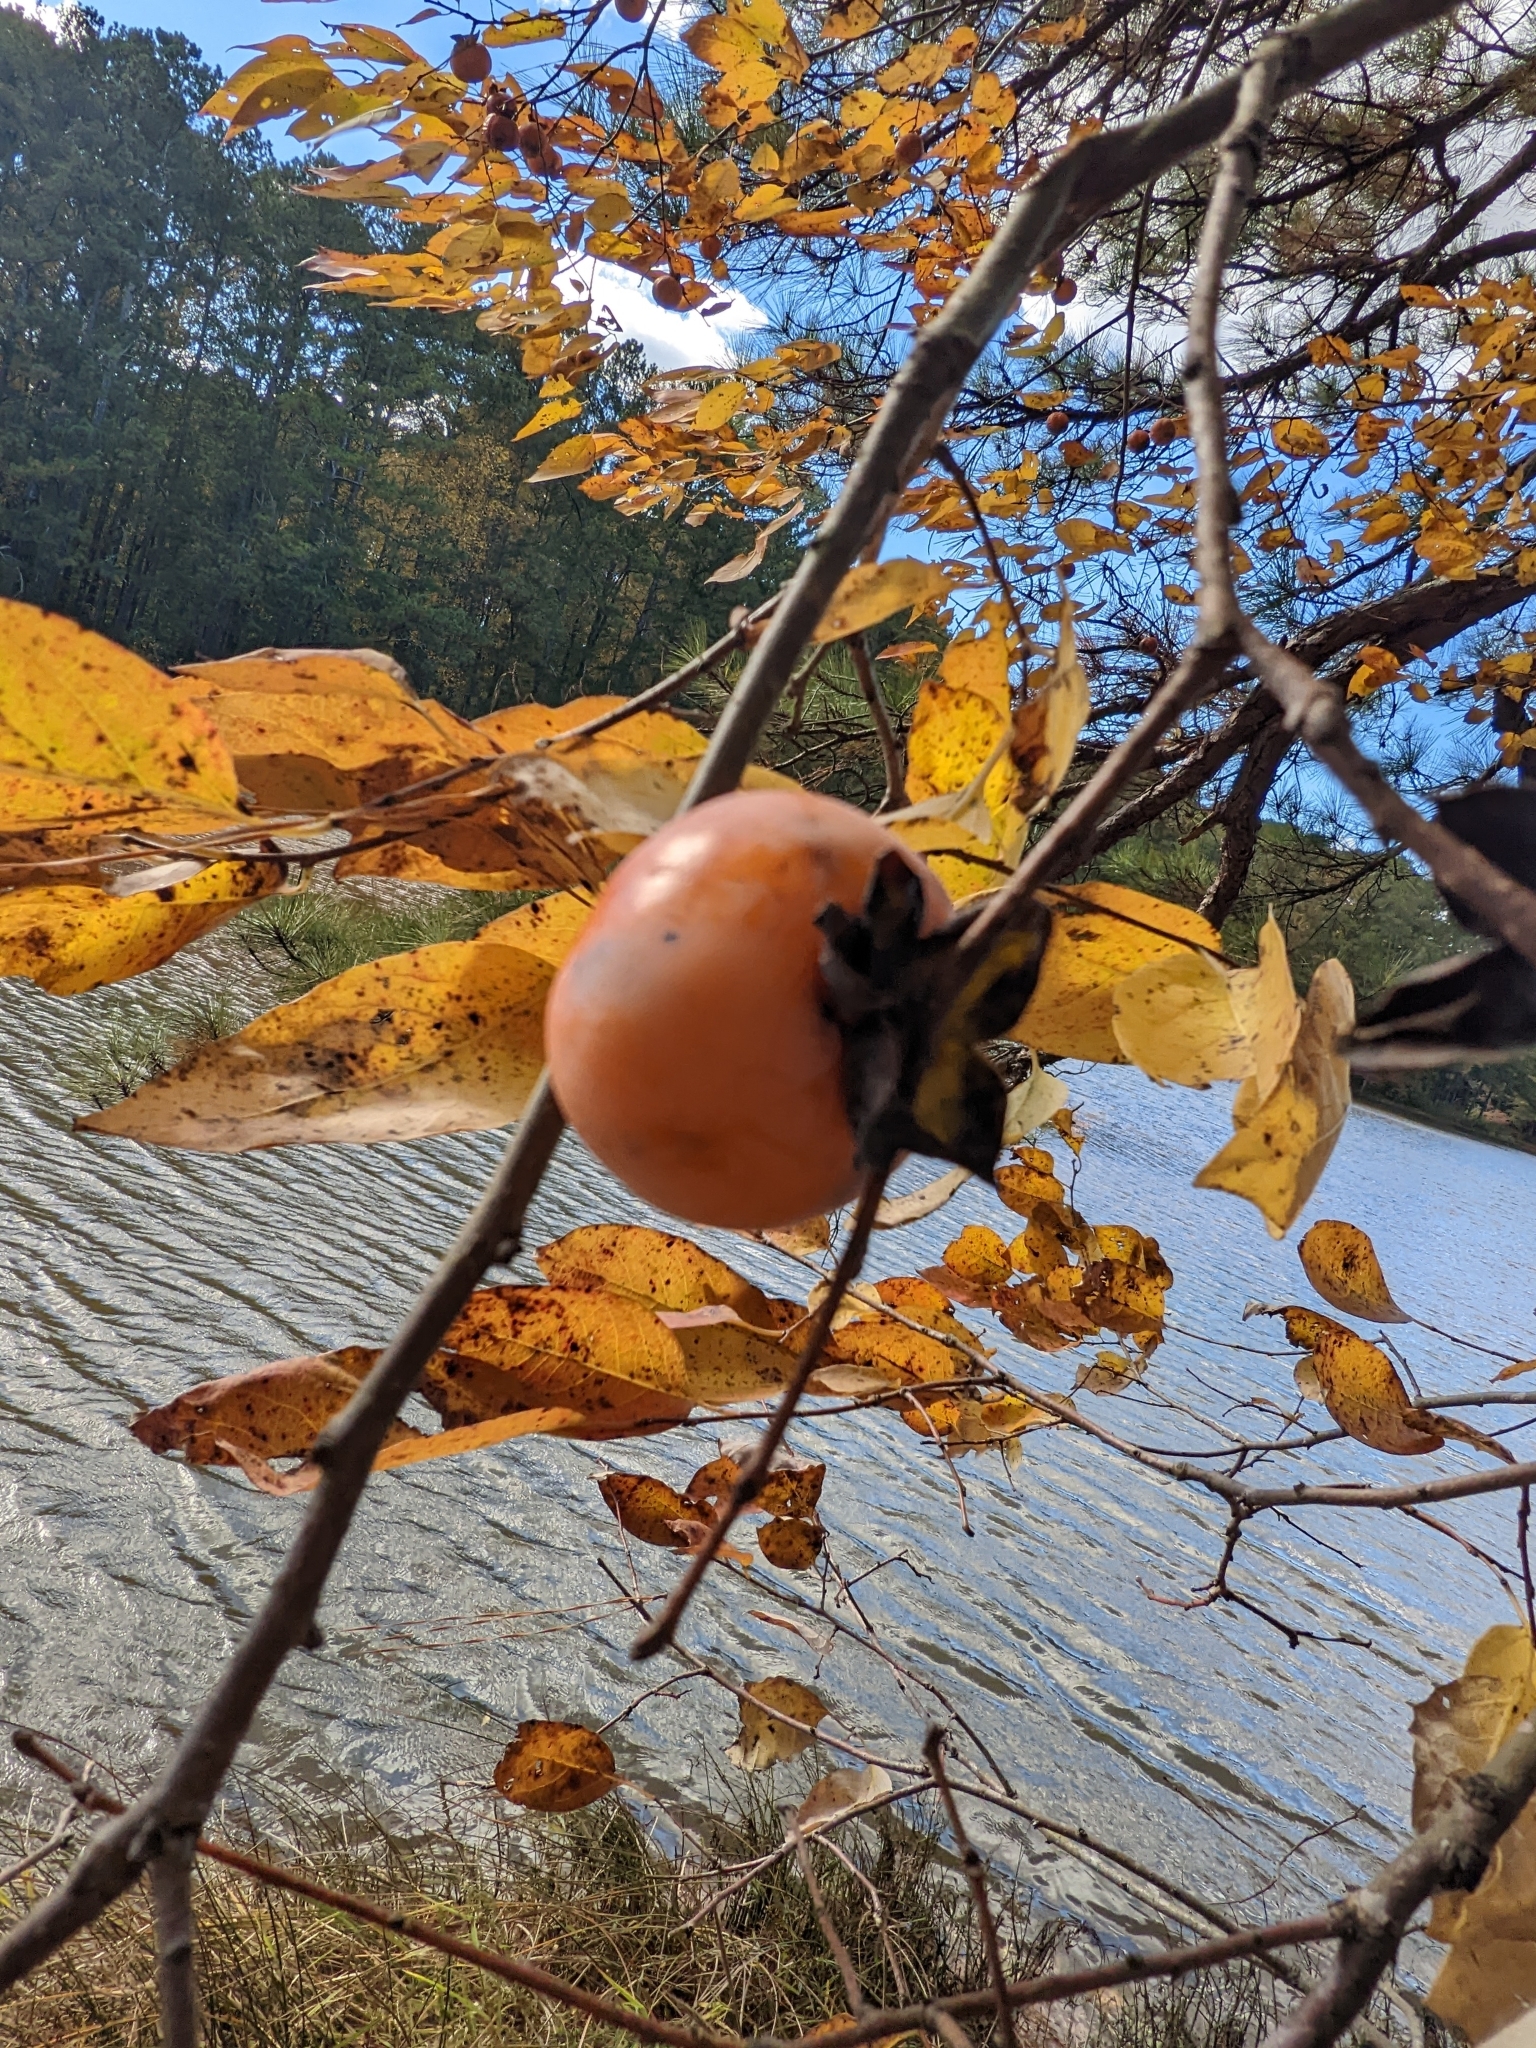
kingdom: Plantae
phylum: Tracheophyta
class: Magnoliopsida
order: Ericales
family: Ebenaceae
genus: Diospyros
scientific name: Diospyros virginiana
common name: Persimmon
